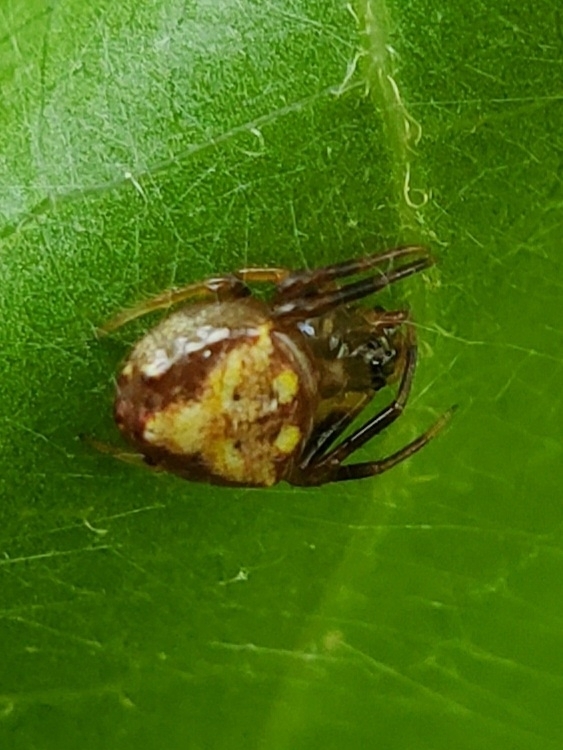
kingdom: Animalia
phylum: Arthropoda
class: Arachnida
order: Araneae
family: Araneidae
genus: Verrucosa
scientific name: Verrucosa arenata
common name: Orb weavers
